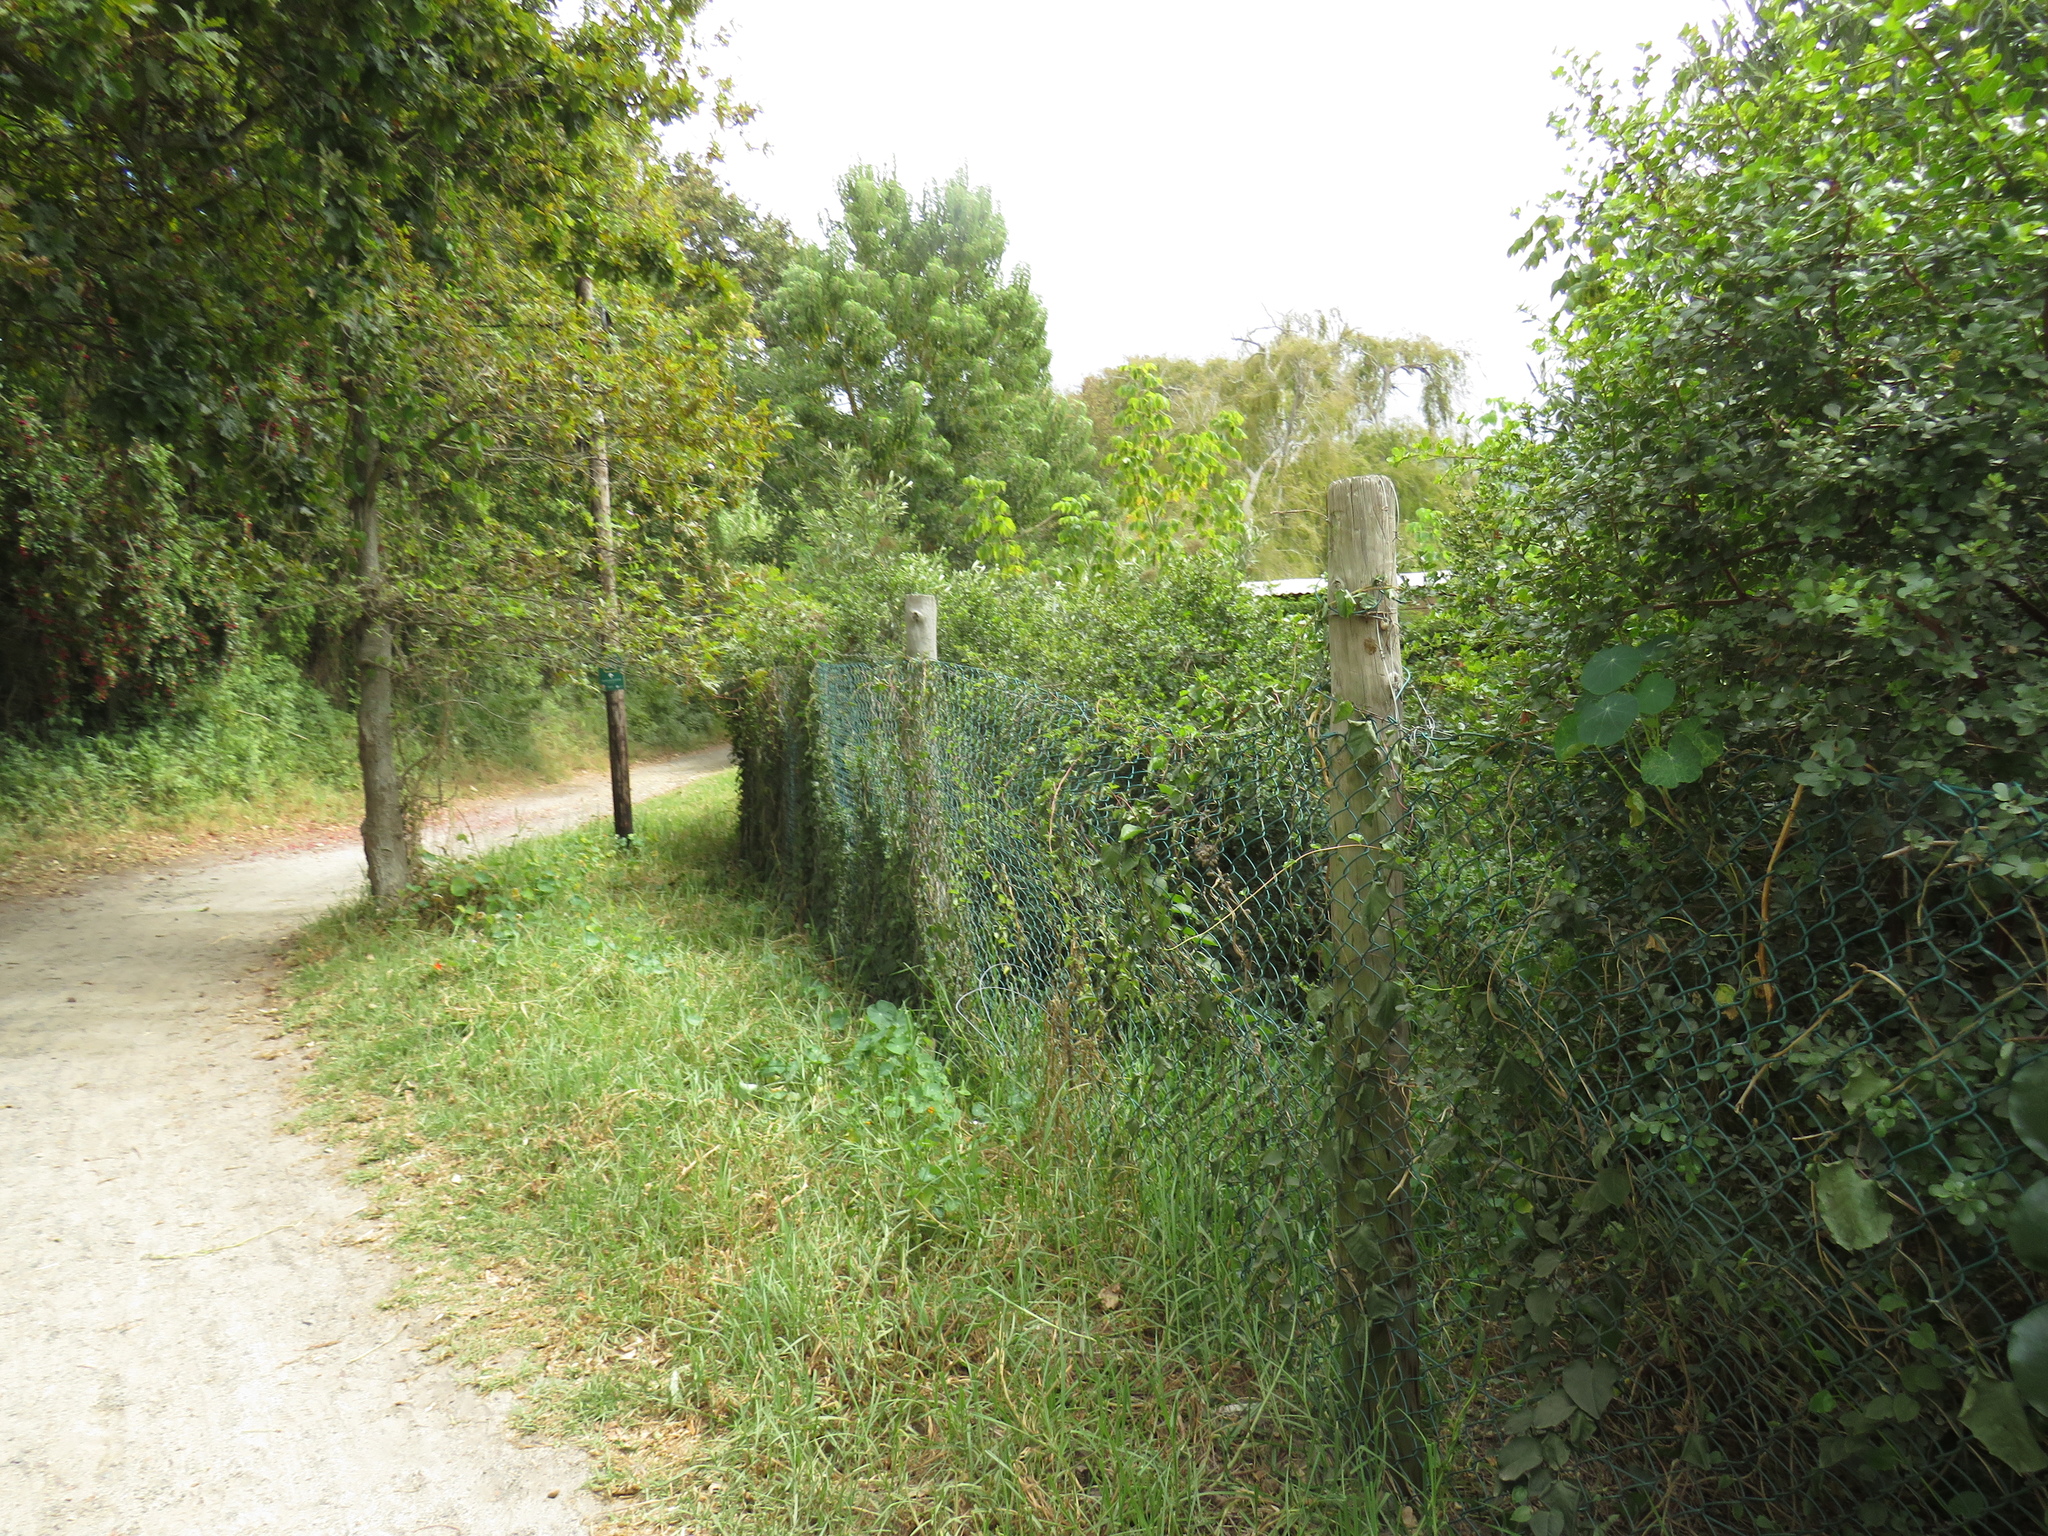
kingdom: Plantae
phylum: Tracheophyta
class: Magnoliopsida
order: Caryophyllales
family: Basellaceae
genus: Anredera
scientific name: Anredera cordifolia
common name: Heartleaf madeiravine
